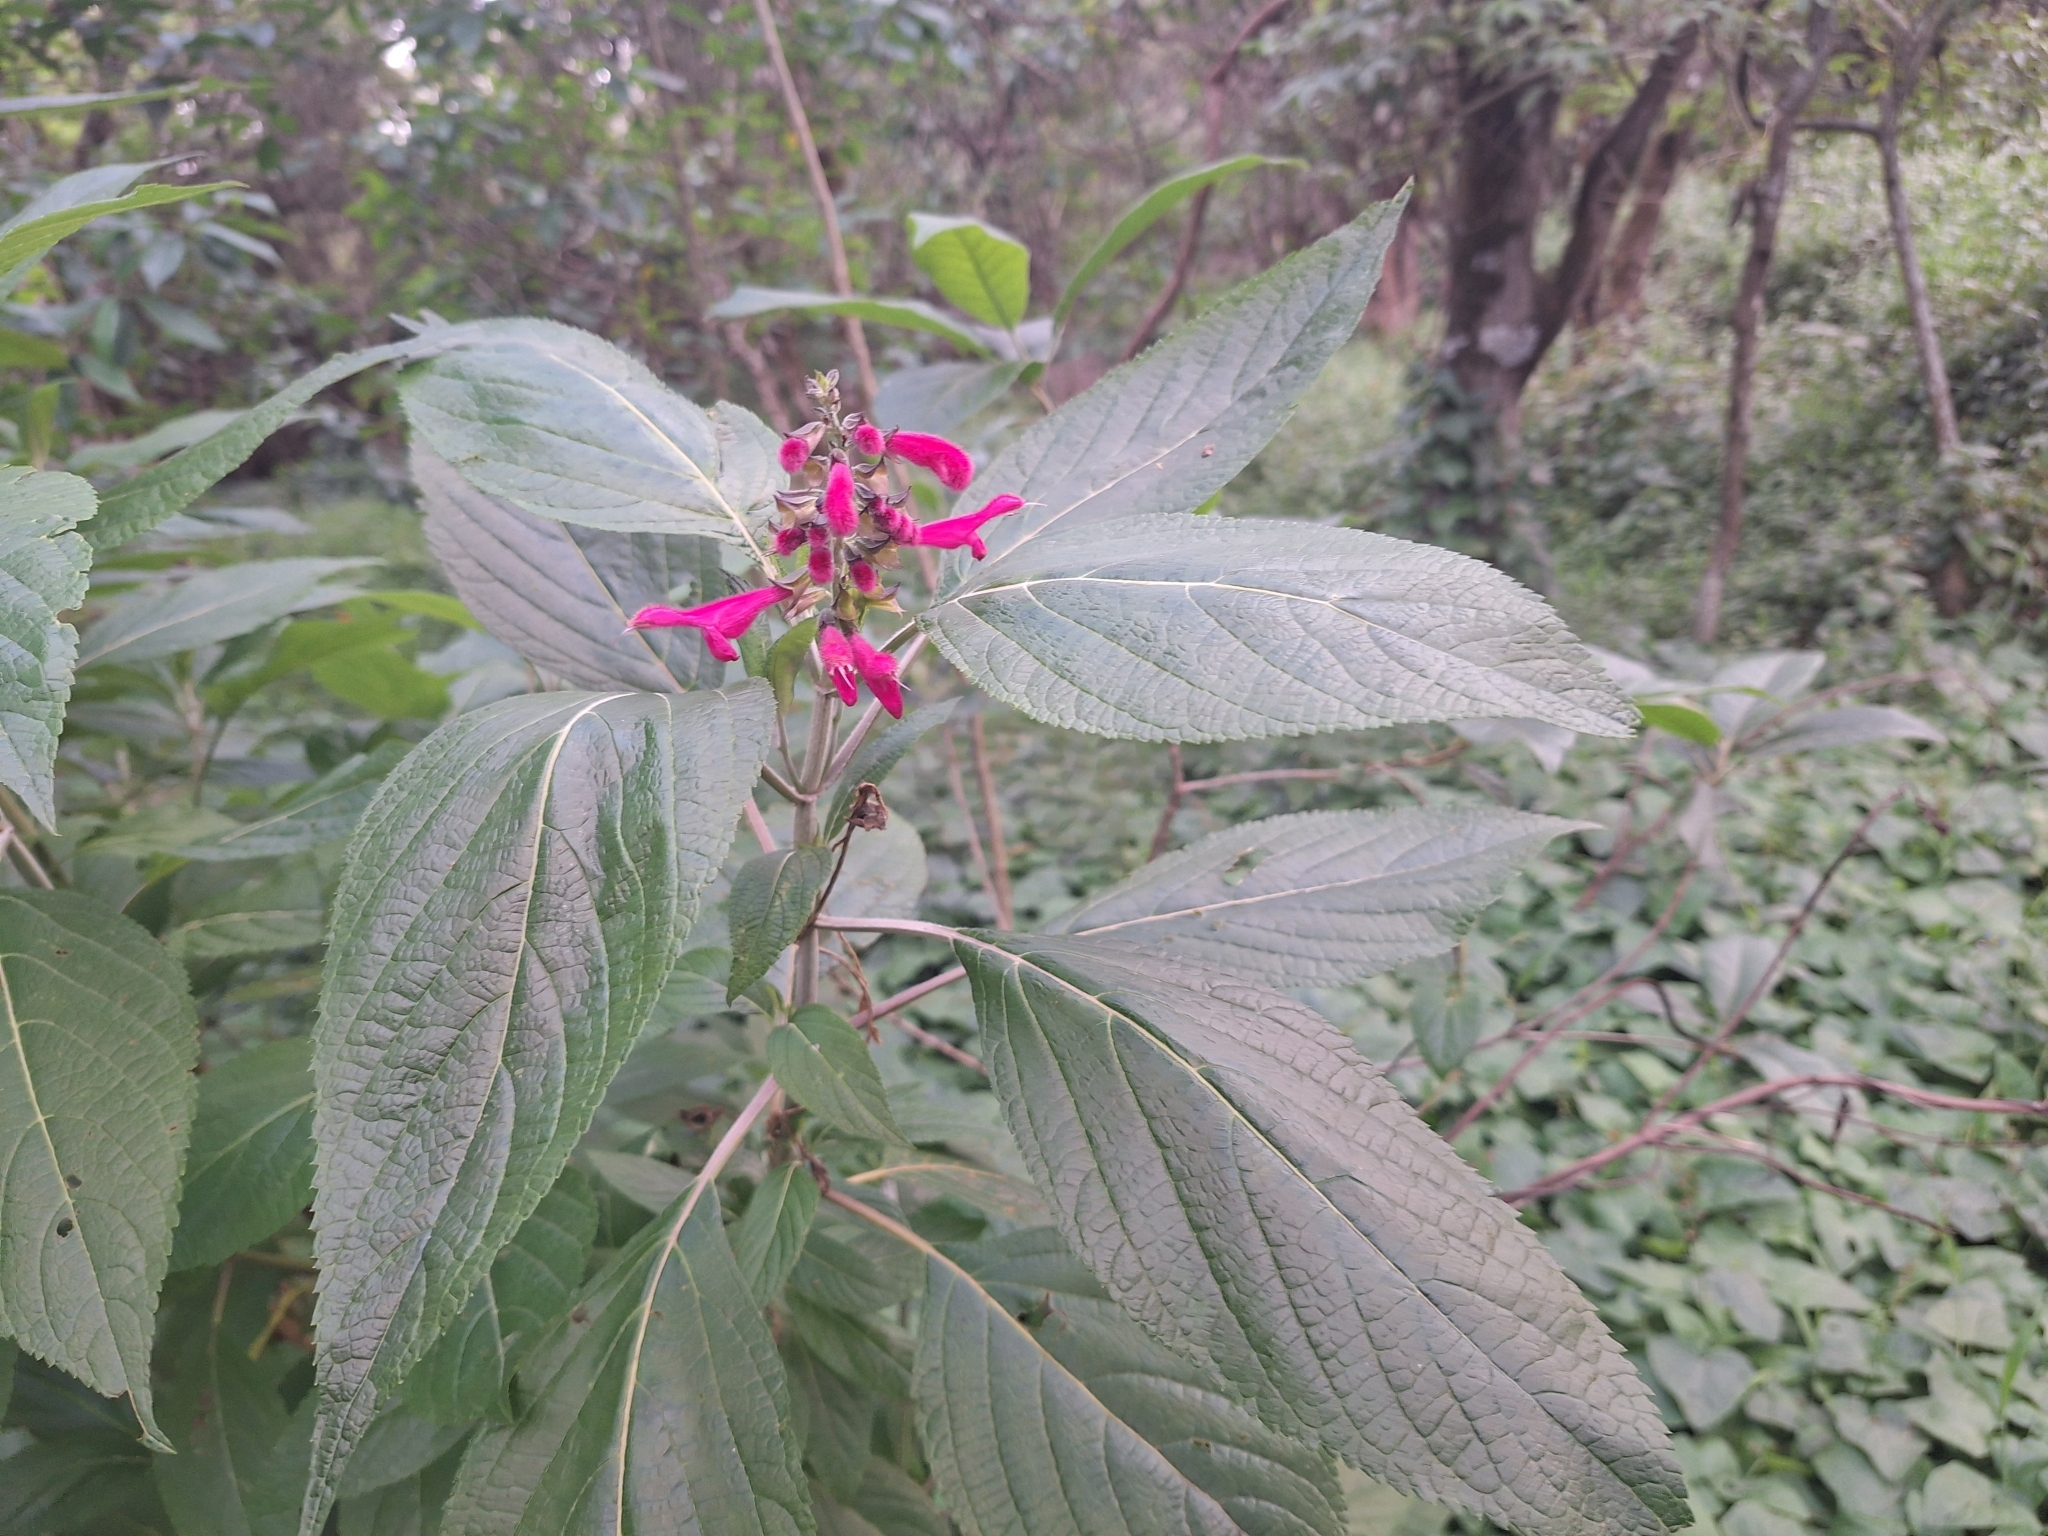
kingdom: Plantae
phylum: Tracheophyta
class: Magnoliopsida
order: Lamiales
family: Lamiaceae
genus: Salvia
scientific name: Salvia tortuosa
